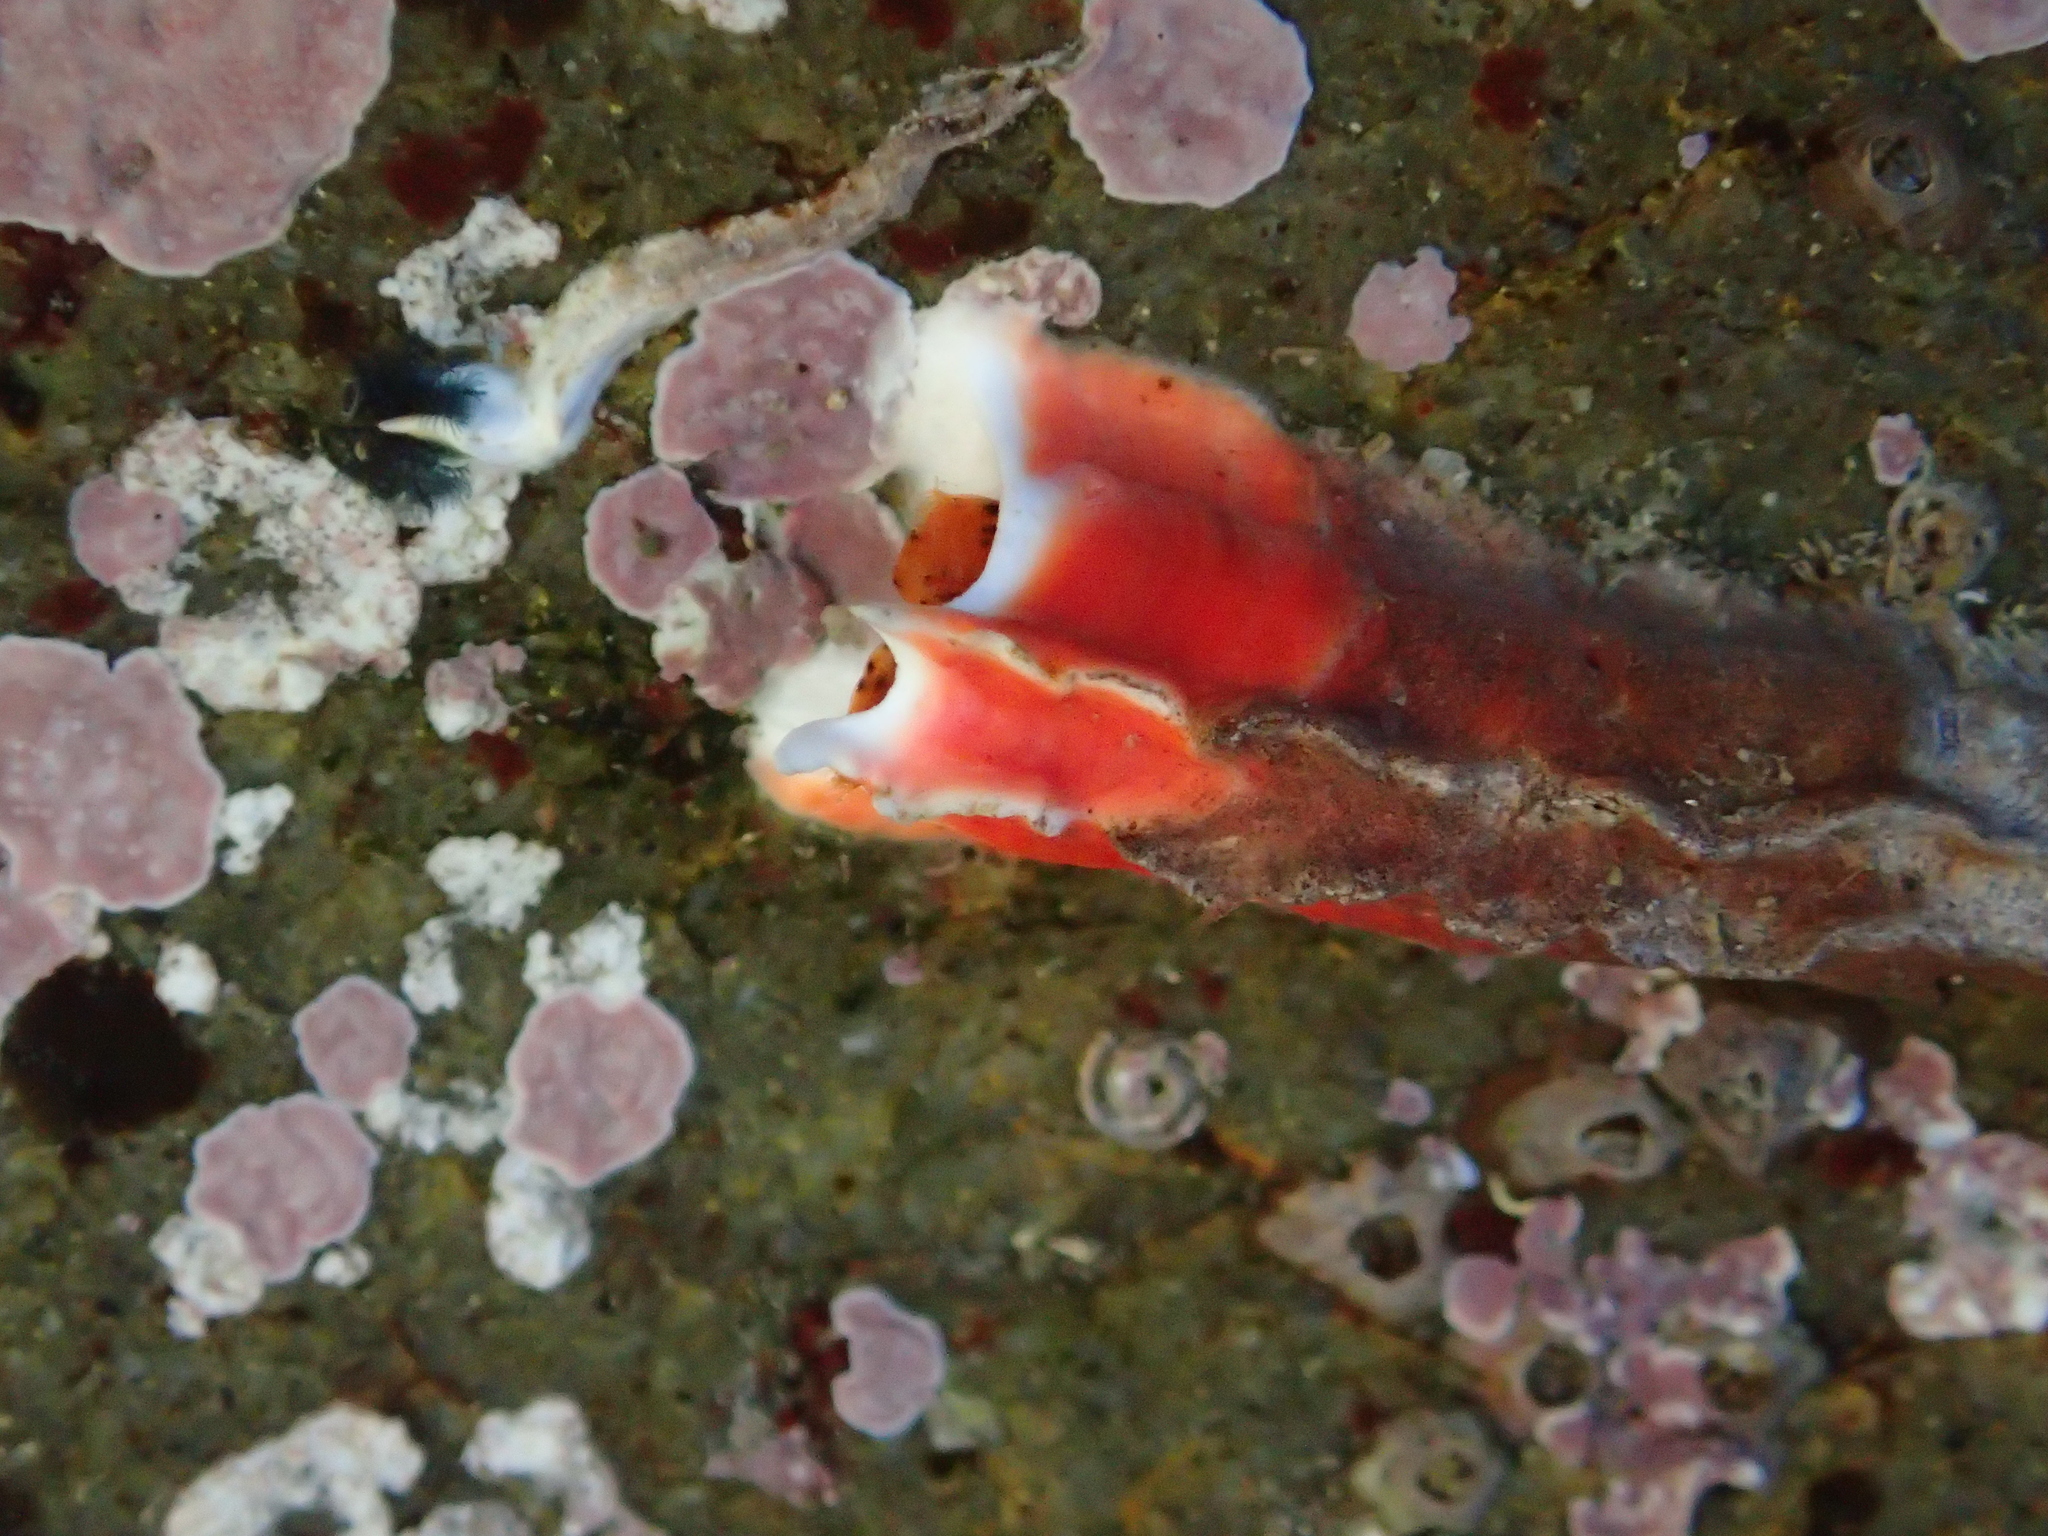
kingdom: Animalia
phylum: Annelida
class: Polychaeta
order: Sabellida
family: Serpulidae
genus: Galeolaria
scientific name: Galeolaria hystrix
